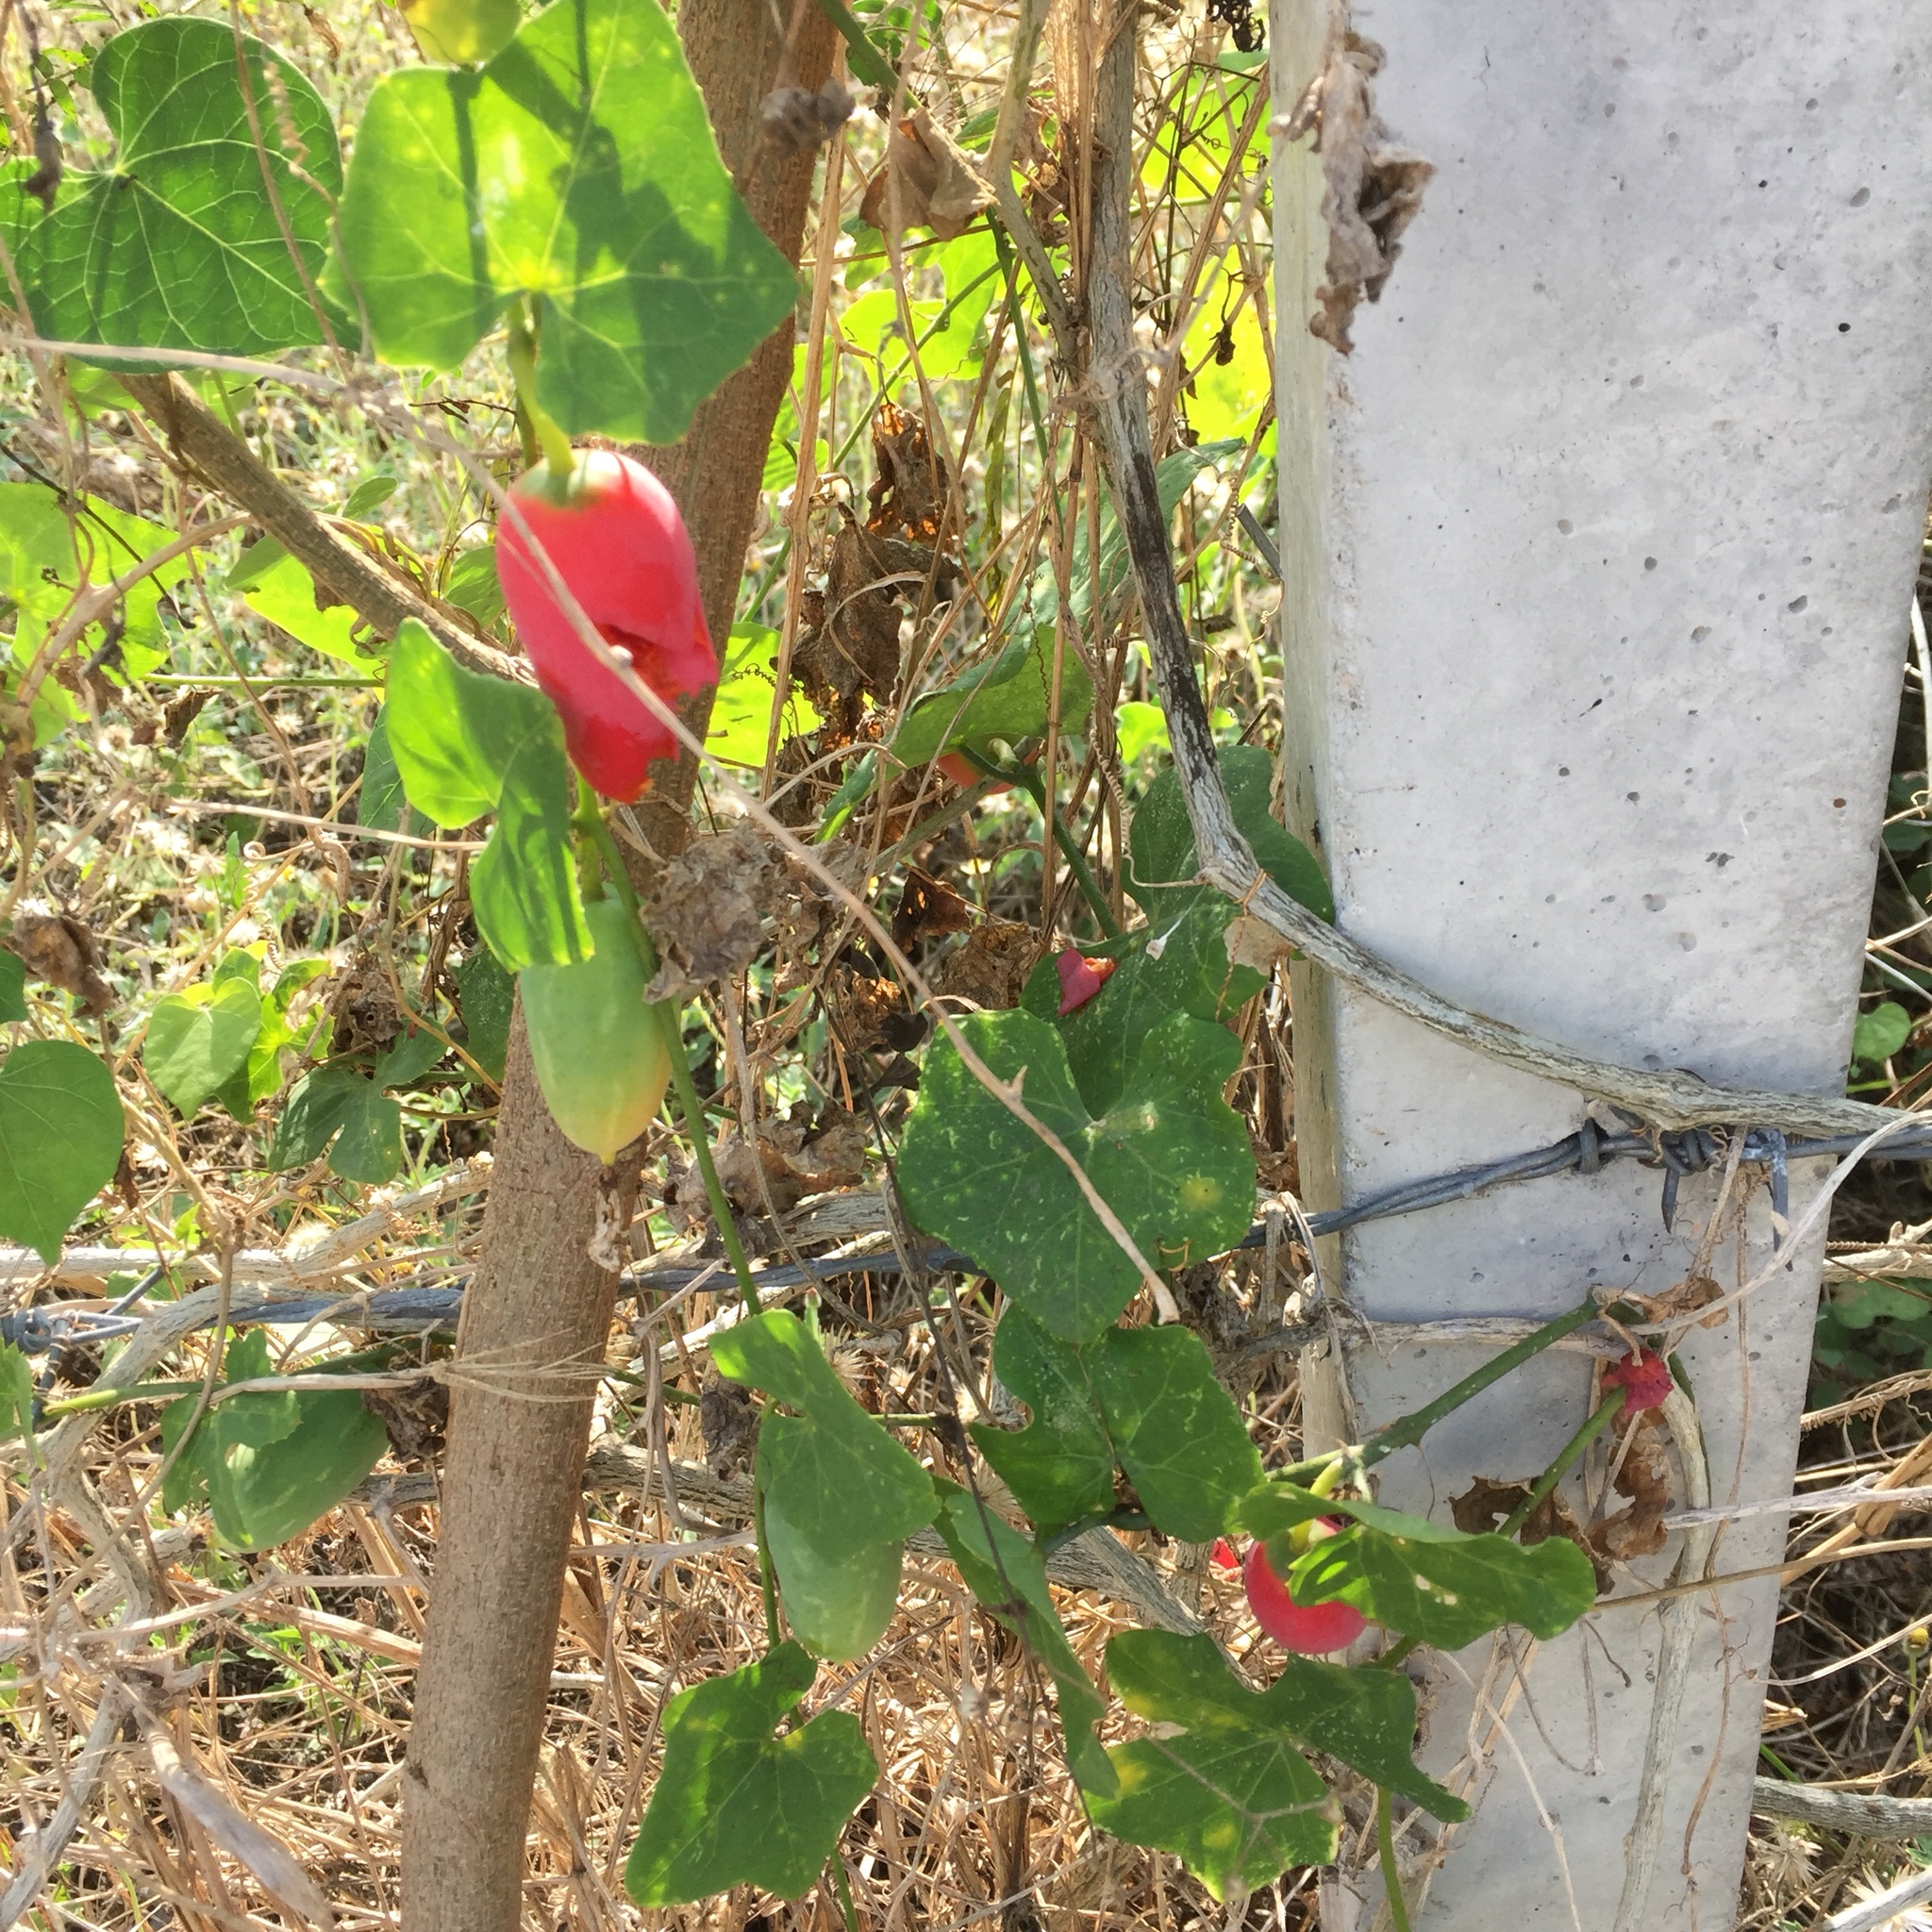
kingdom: Plantae
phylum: Tracheophyta
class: Magnoliopsida
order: Cucurbitales
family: Cucurbitaceae
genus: Coccinia
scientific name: Coccinia grandis
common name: Ivy gourd
